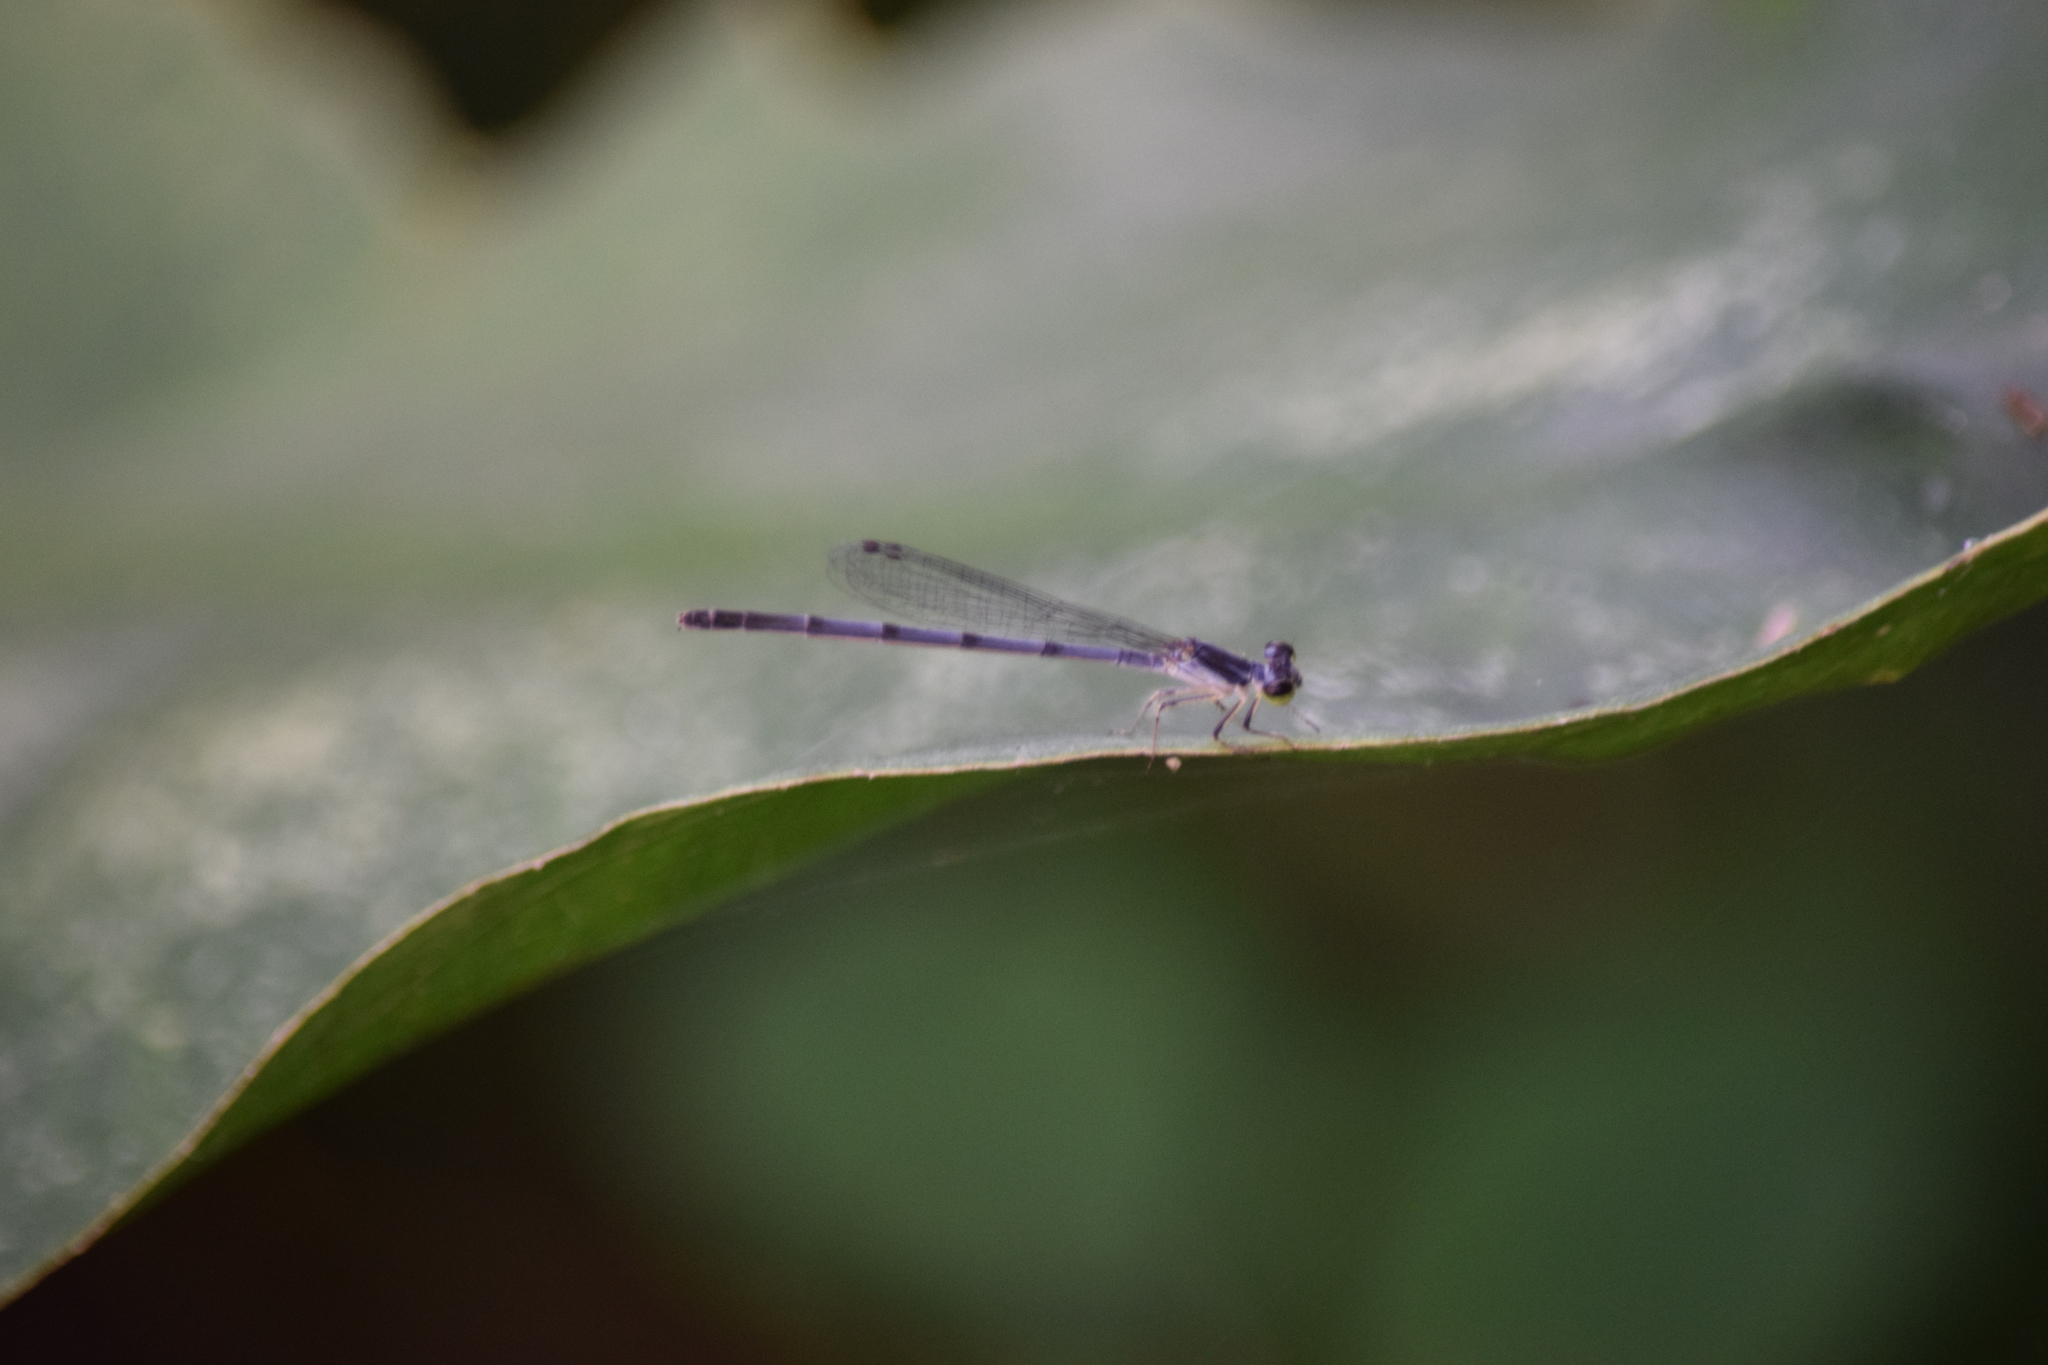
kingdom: Animalia
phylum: Arthropoda
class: Insecta
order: Odonata
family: Coenagrionidae
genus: Ischnura
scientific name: Ischnura posita
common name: Fragile forktail
